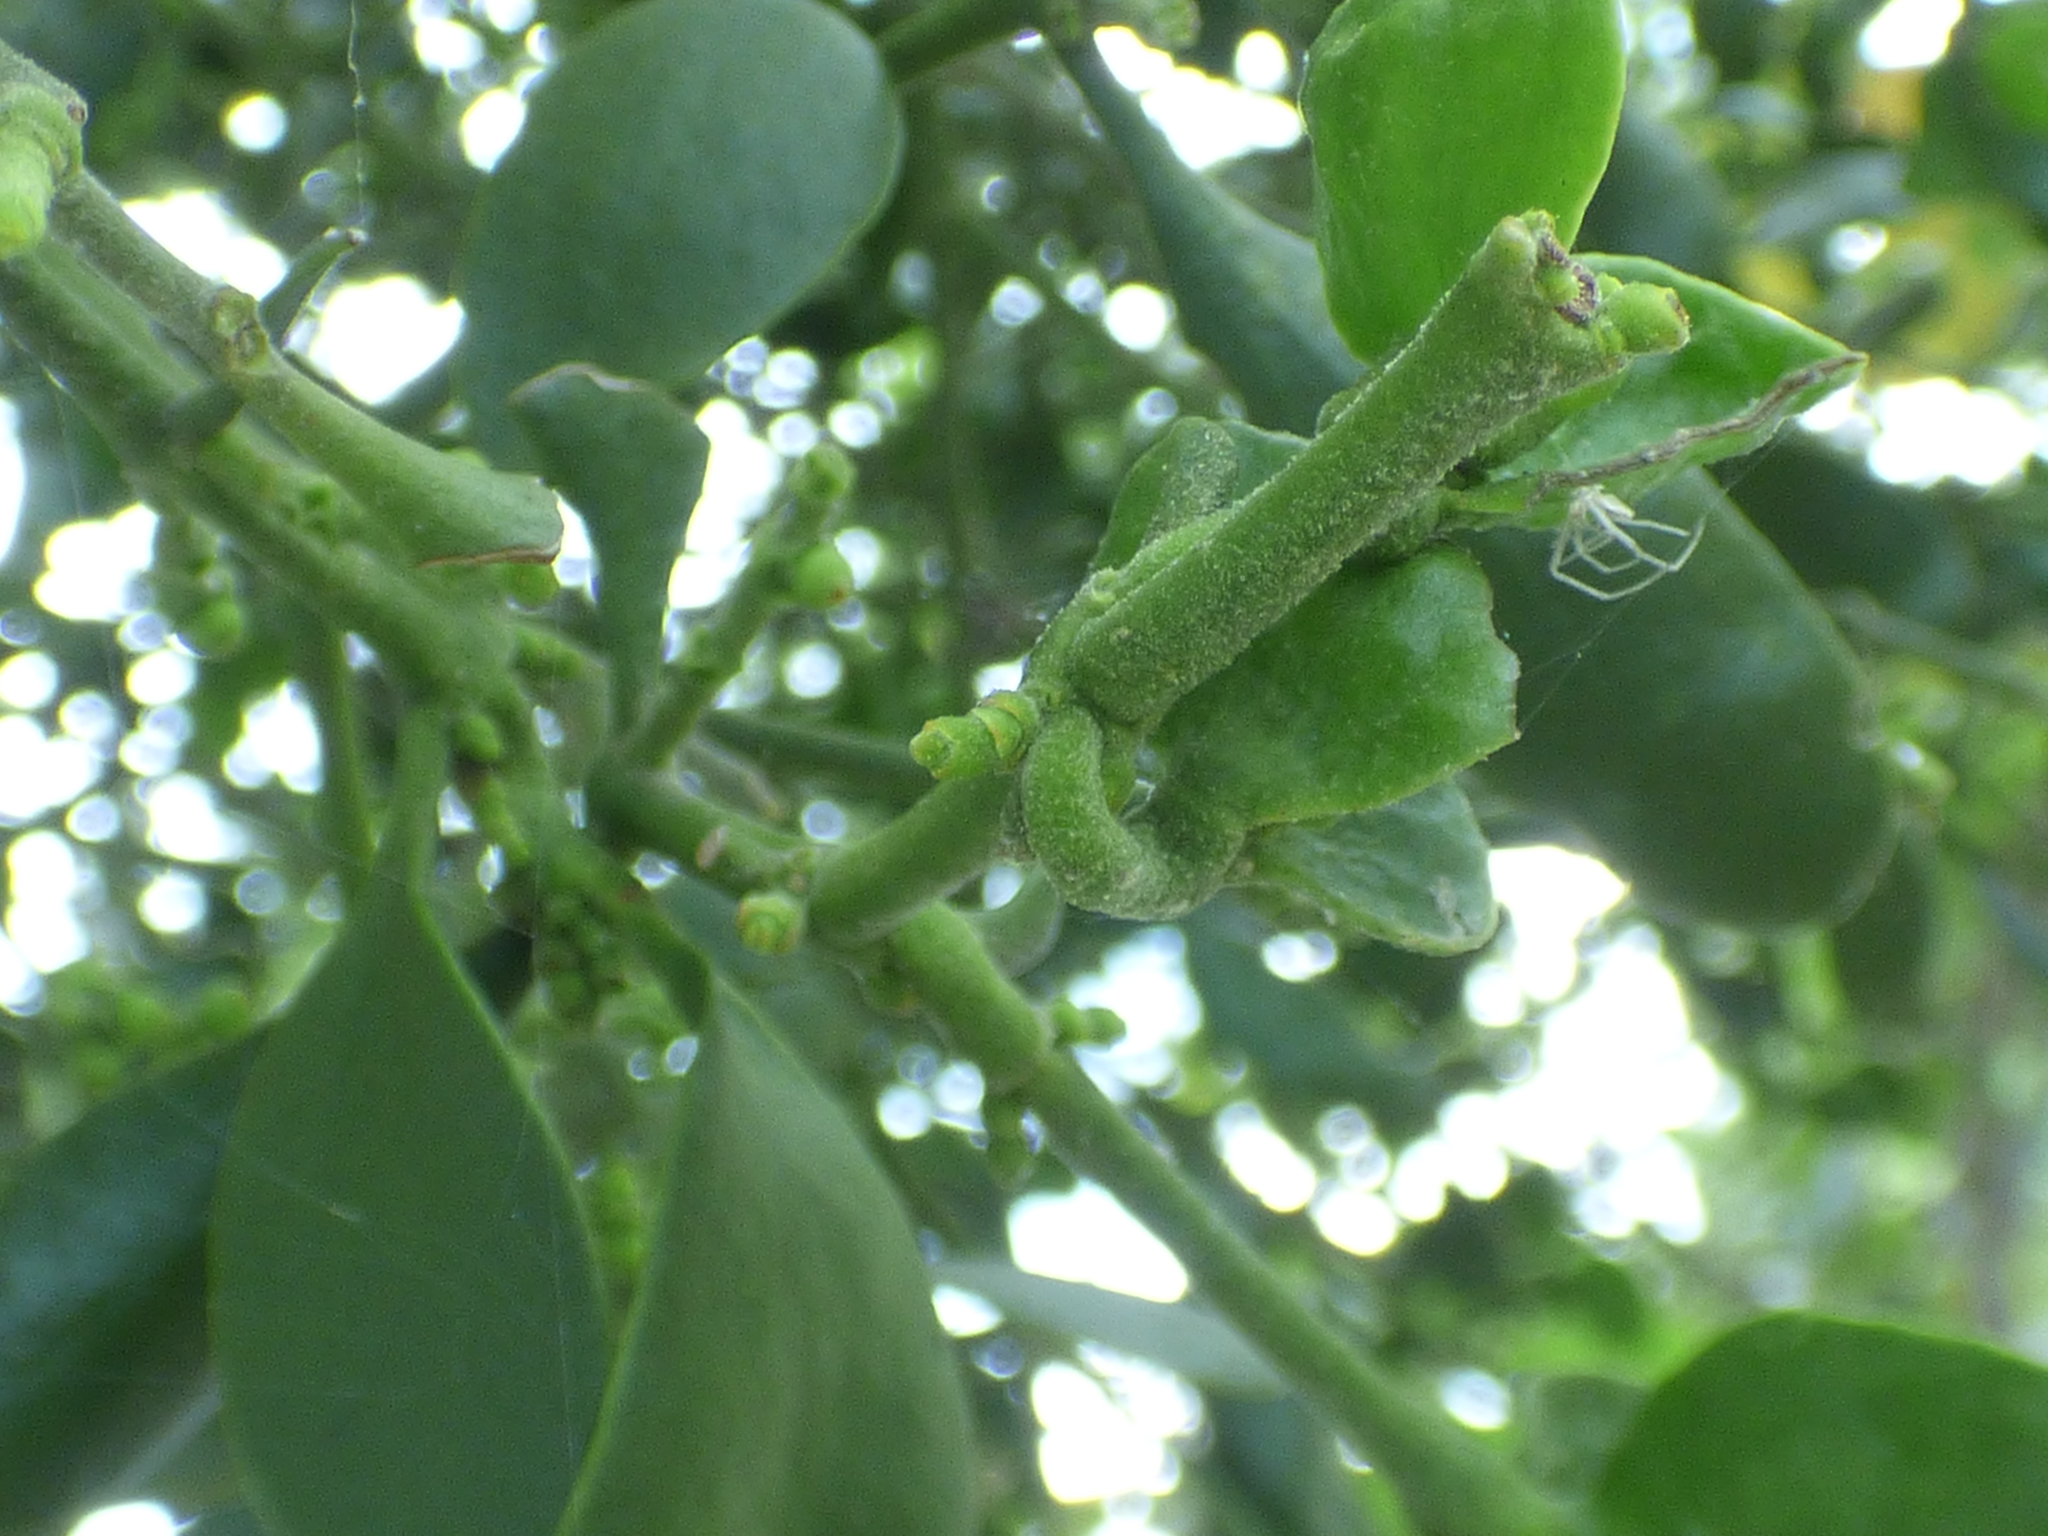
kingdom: Plantae
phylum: Tracheophyta
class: Magnoliopsida
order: Santalales
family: Viscaceae
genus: Phoradendron
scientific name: Phoradendron leucarpum
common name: Pacific mistletoe
